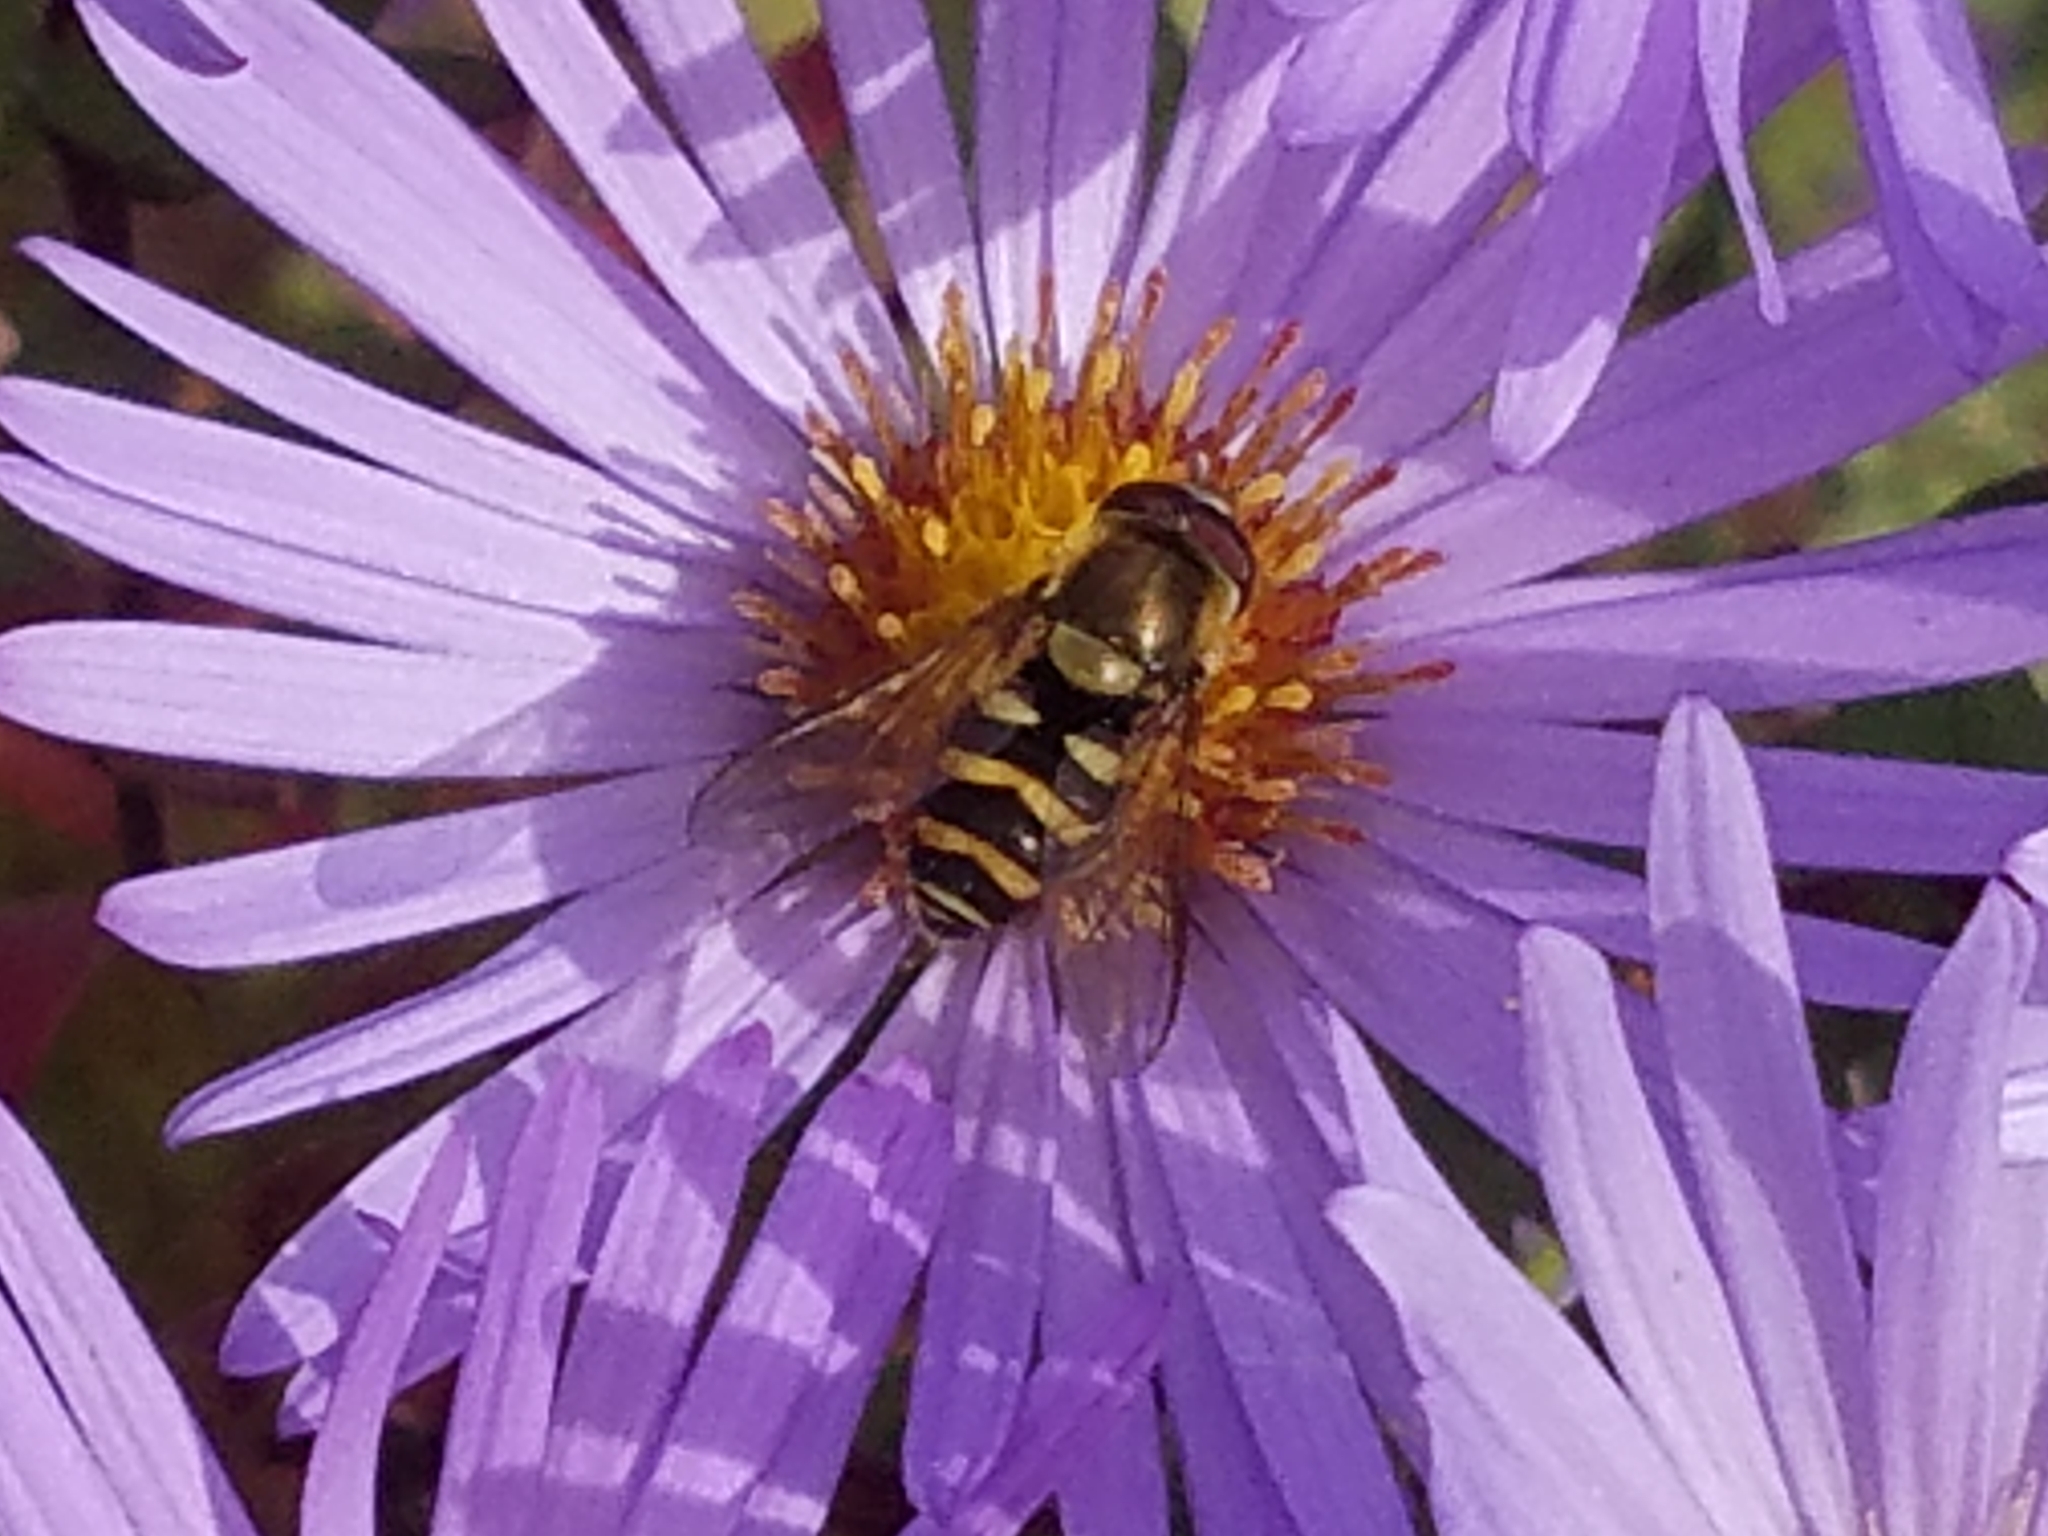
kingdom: Animalia
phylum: Arthropoda
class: Insecta
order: Diptera
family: Syrphidae
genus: Syrphus
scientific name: Syrphus
